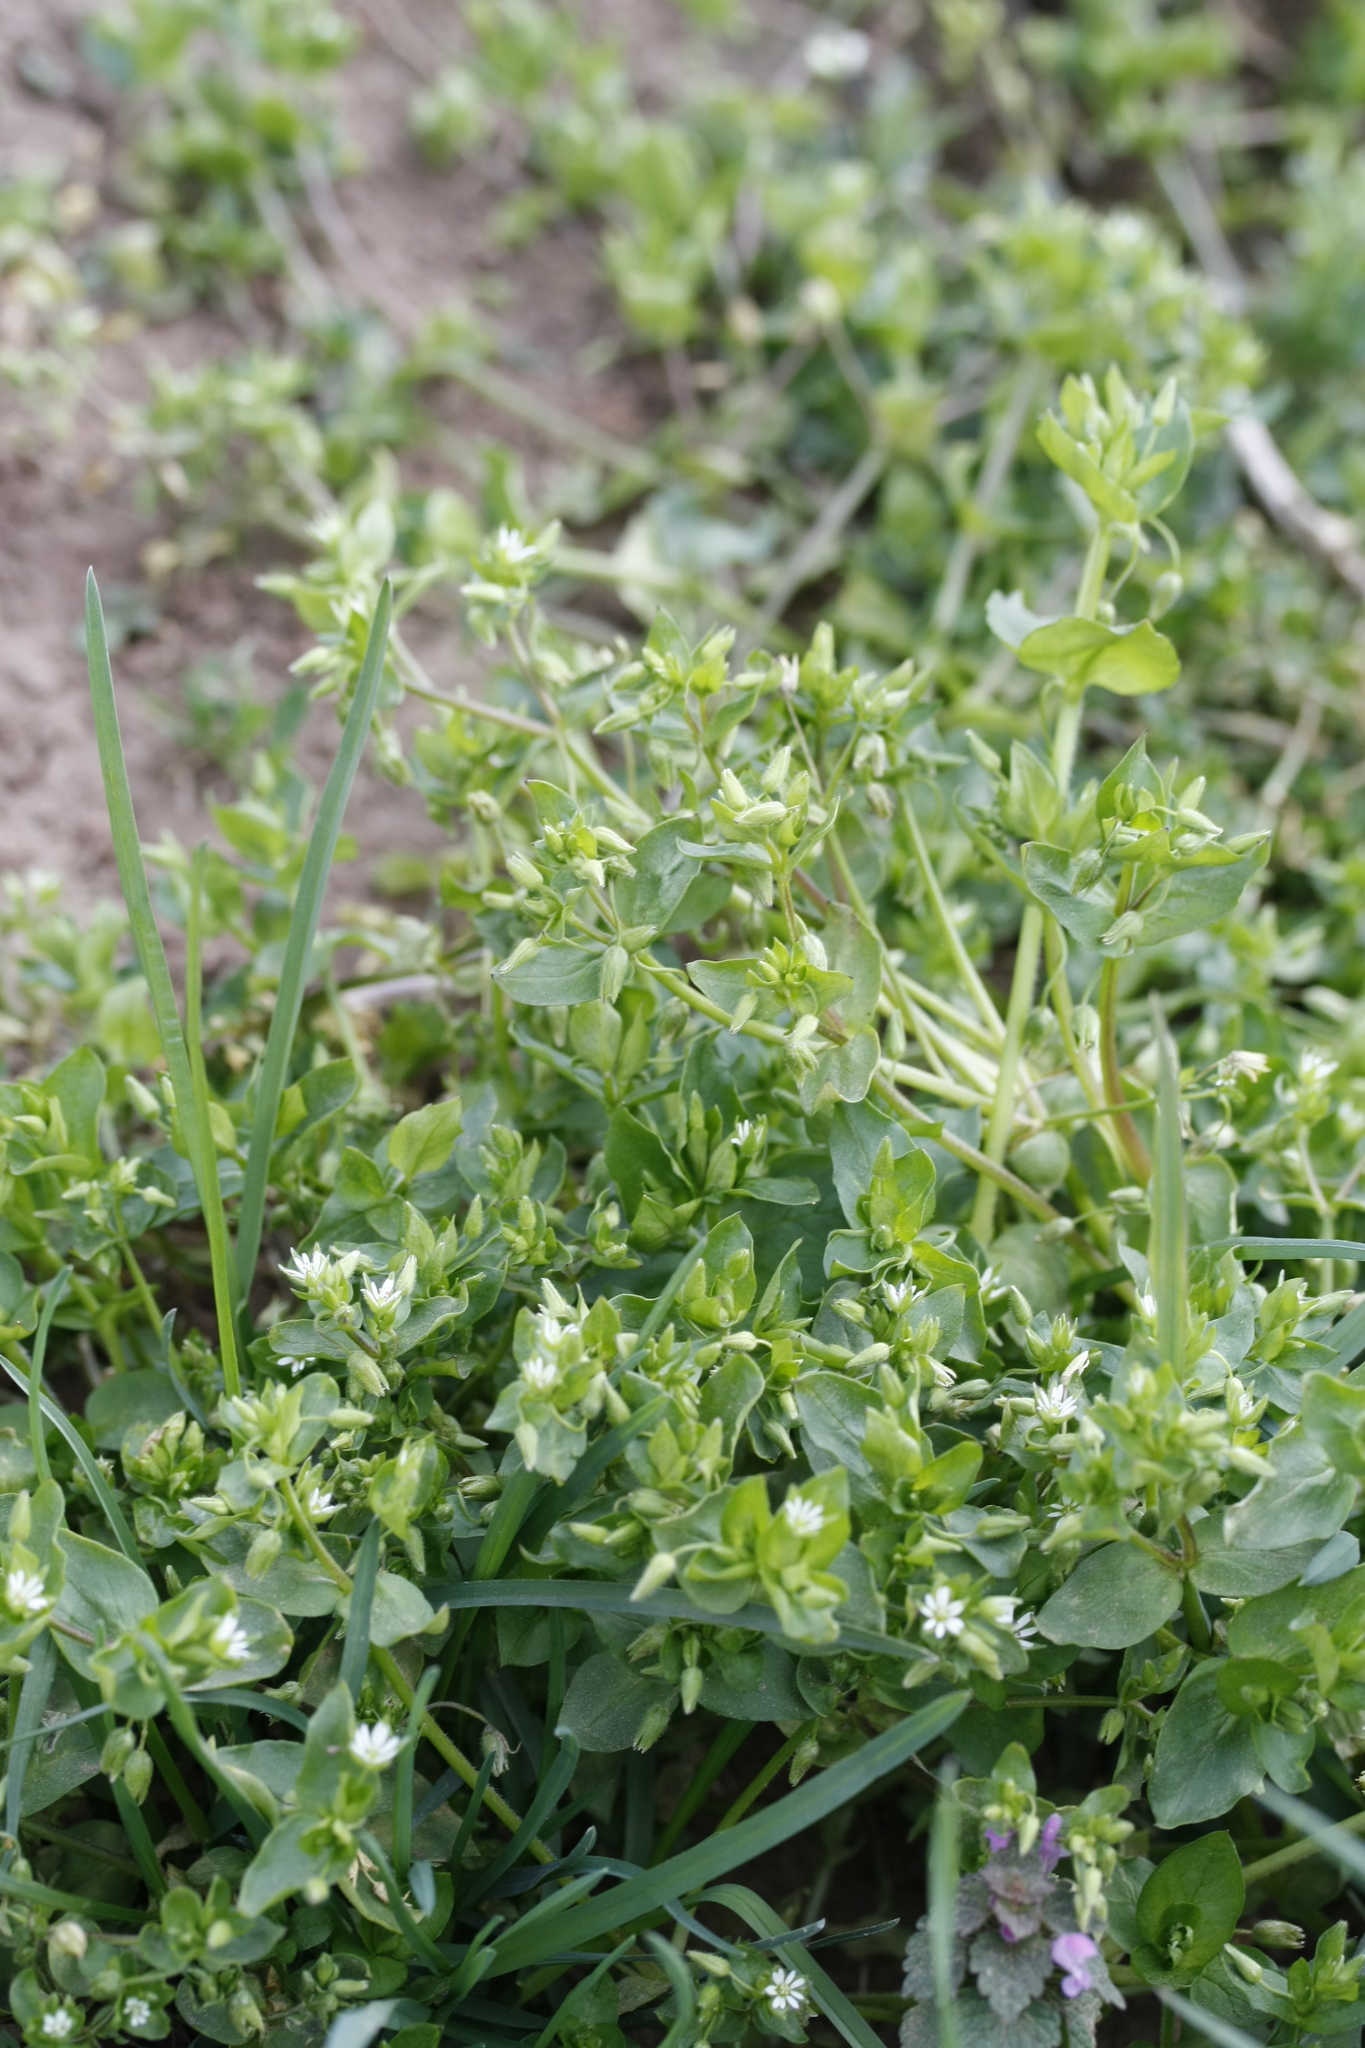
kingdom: Plantae
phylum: Tracheophyta
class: Magnoliopsida
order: Caryophyllales
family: Caryophyllaceae
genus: Stellaria
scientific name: Stellaria media
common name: Common chickweed
